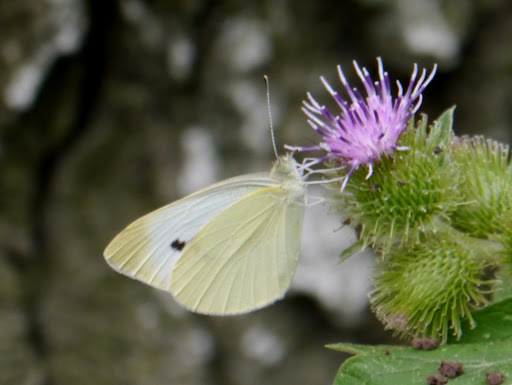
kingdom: Animalia
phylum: Arthropoda
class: Insecta
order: Lepidoptera
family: Pieridae
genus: Pieris
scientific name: Pieris rapae
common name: Small white
